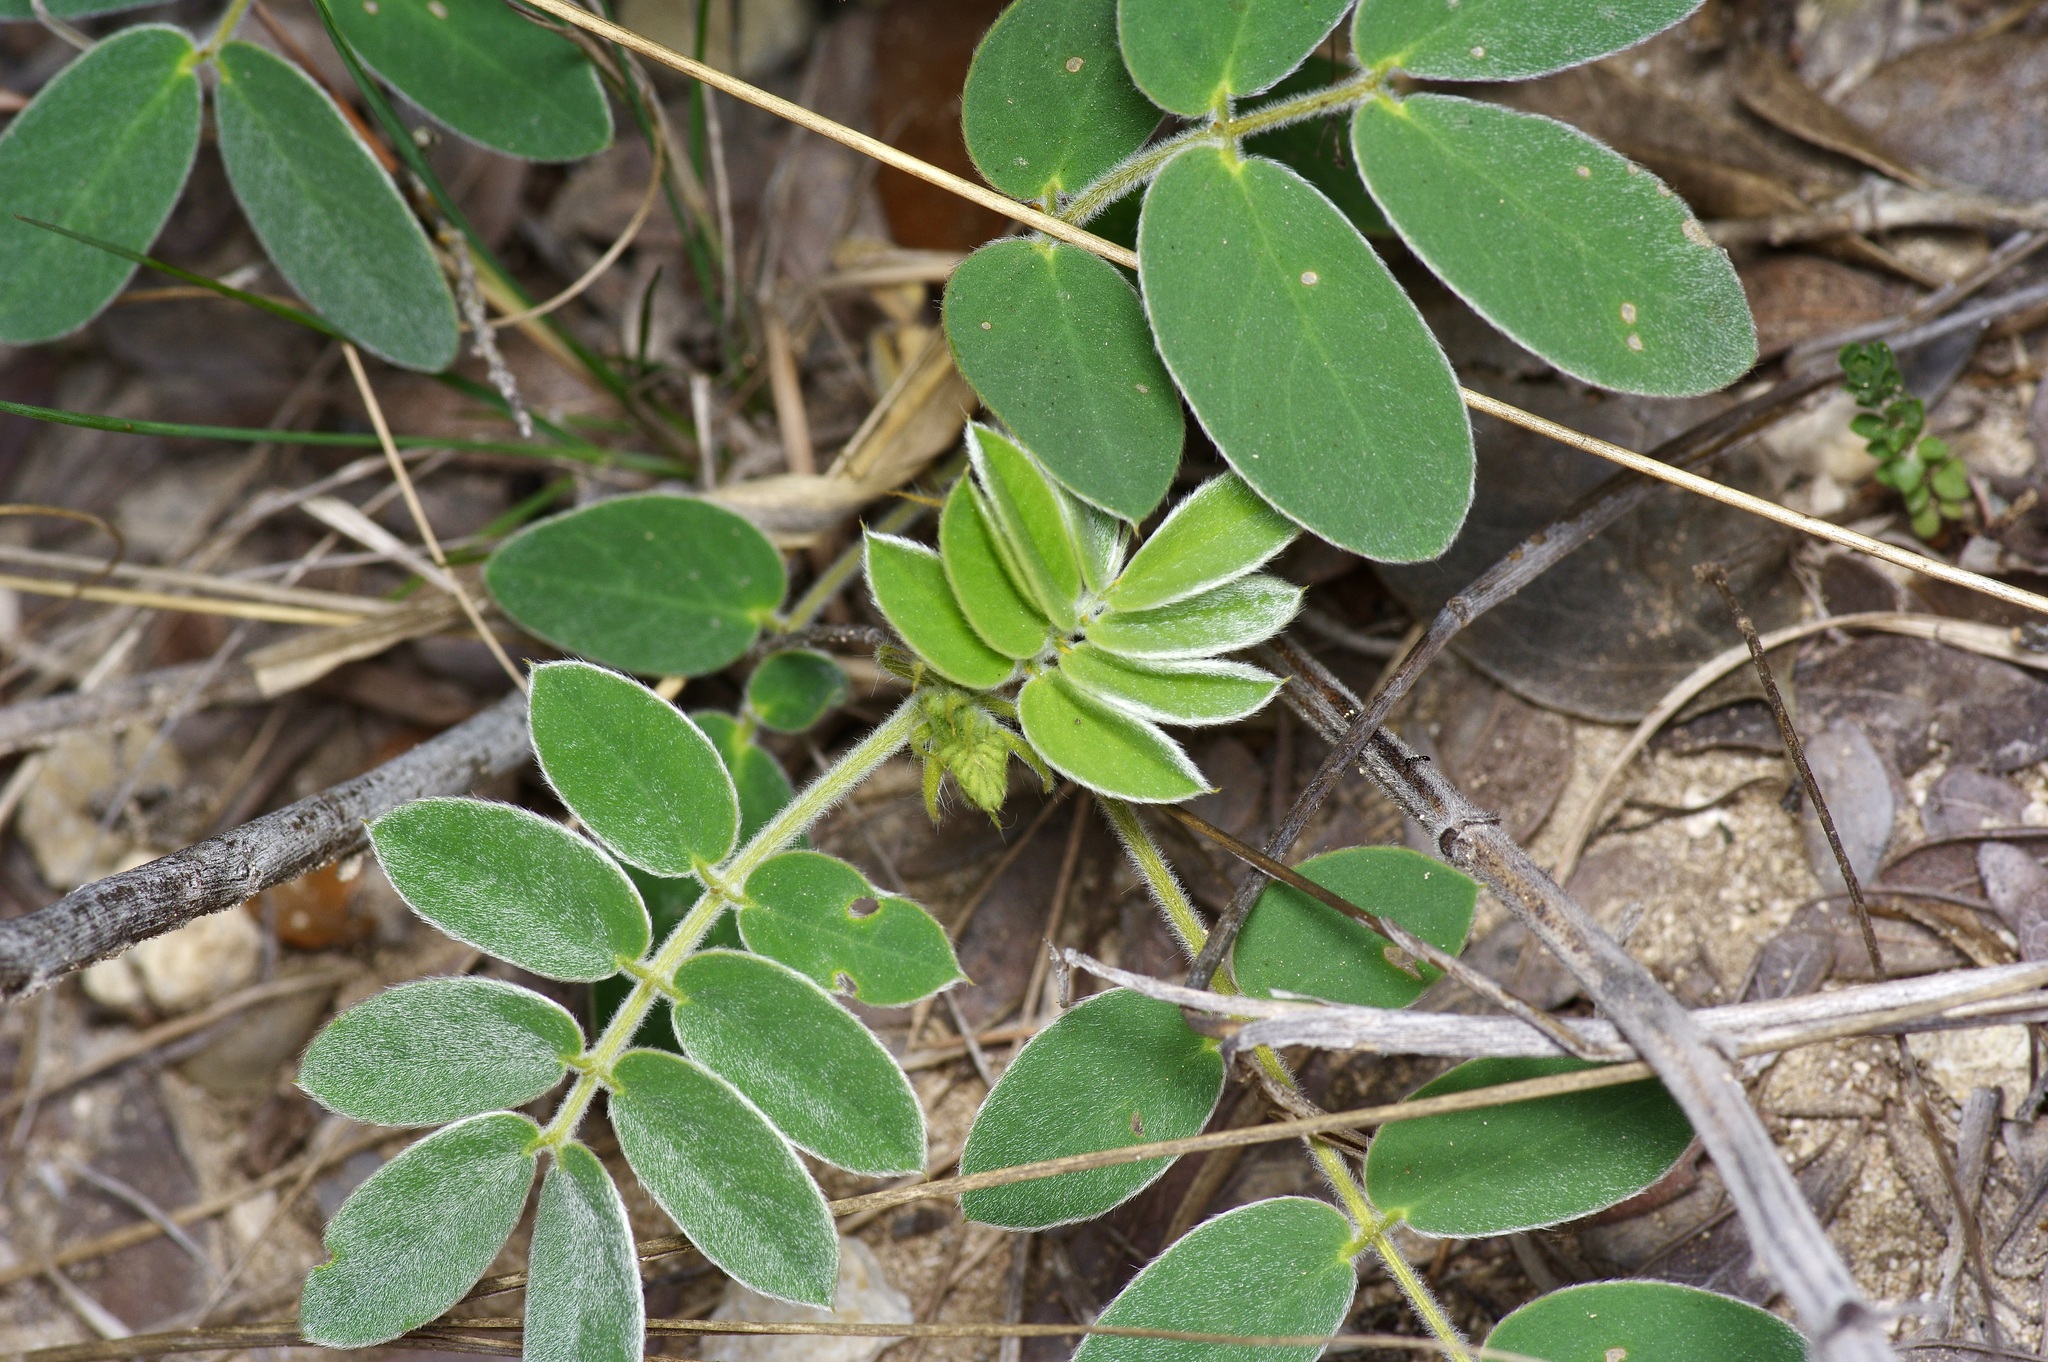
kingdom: Plantae
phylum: Tracheophyta
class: Magnoliopsida
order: Fabales
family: Fabaceae
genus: Senna
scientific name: Senna lindheimeriana
